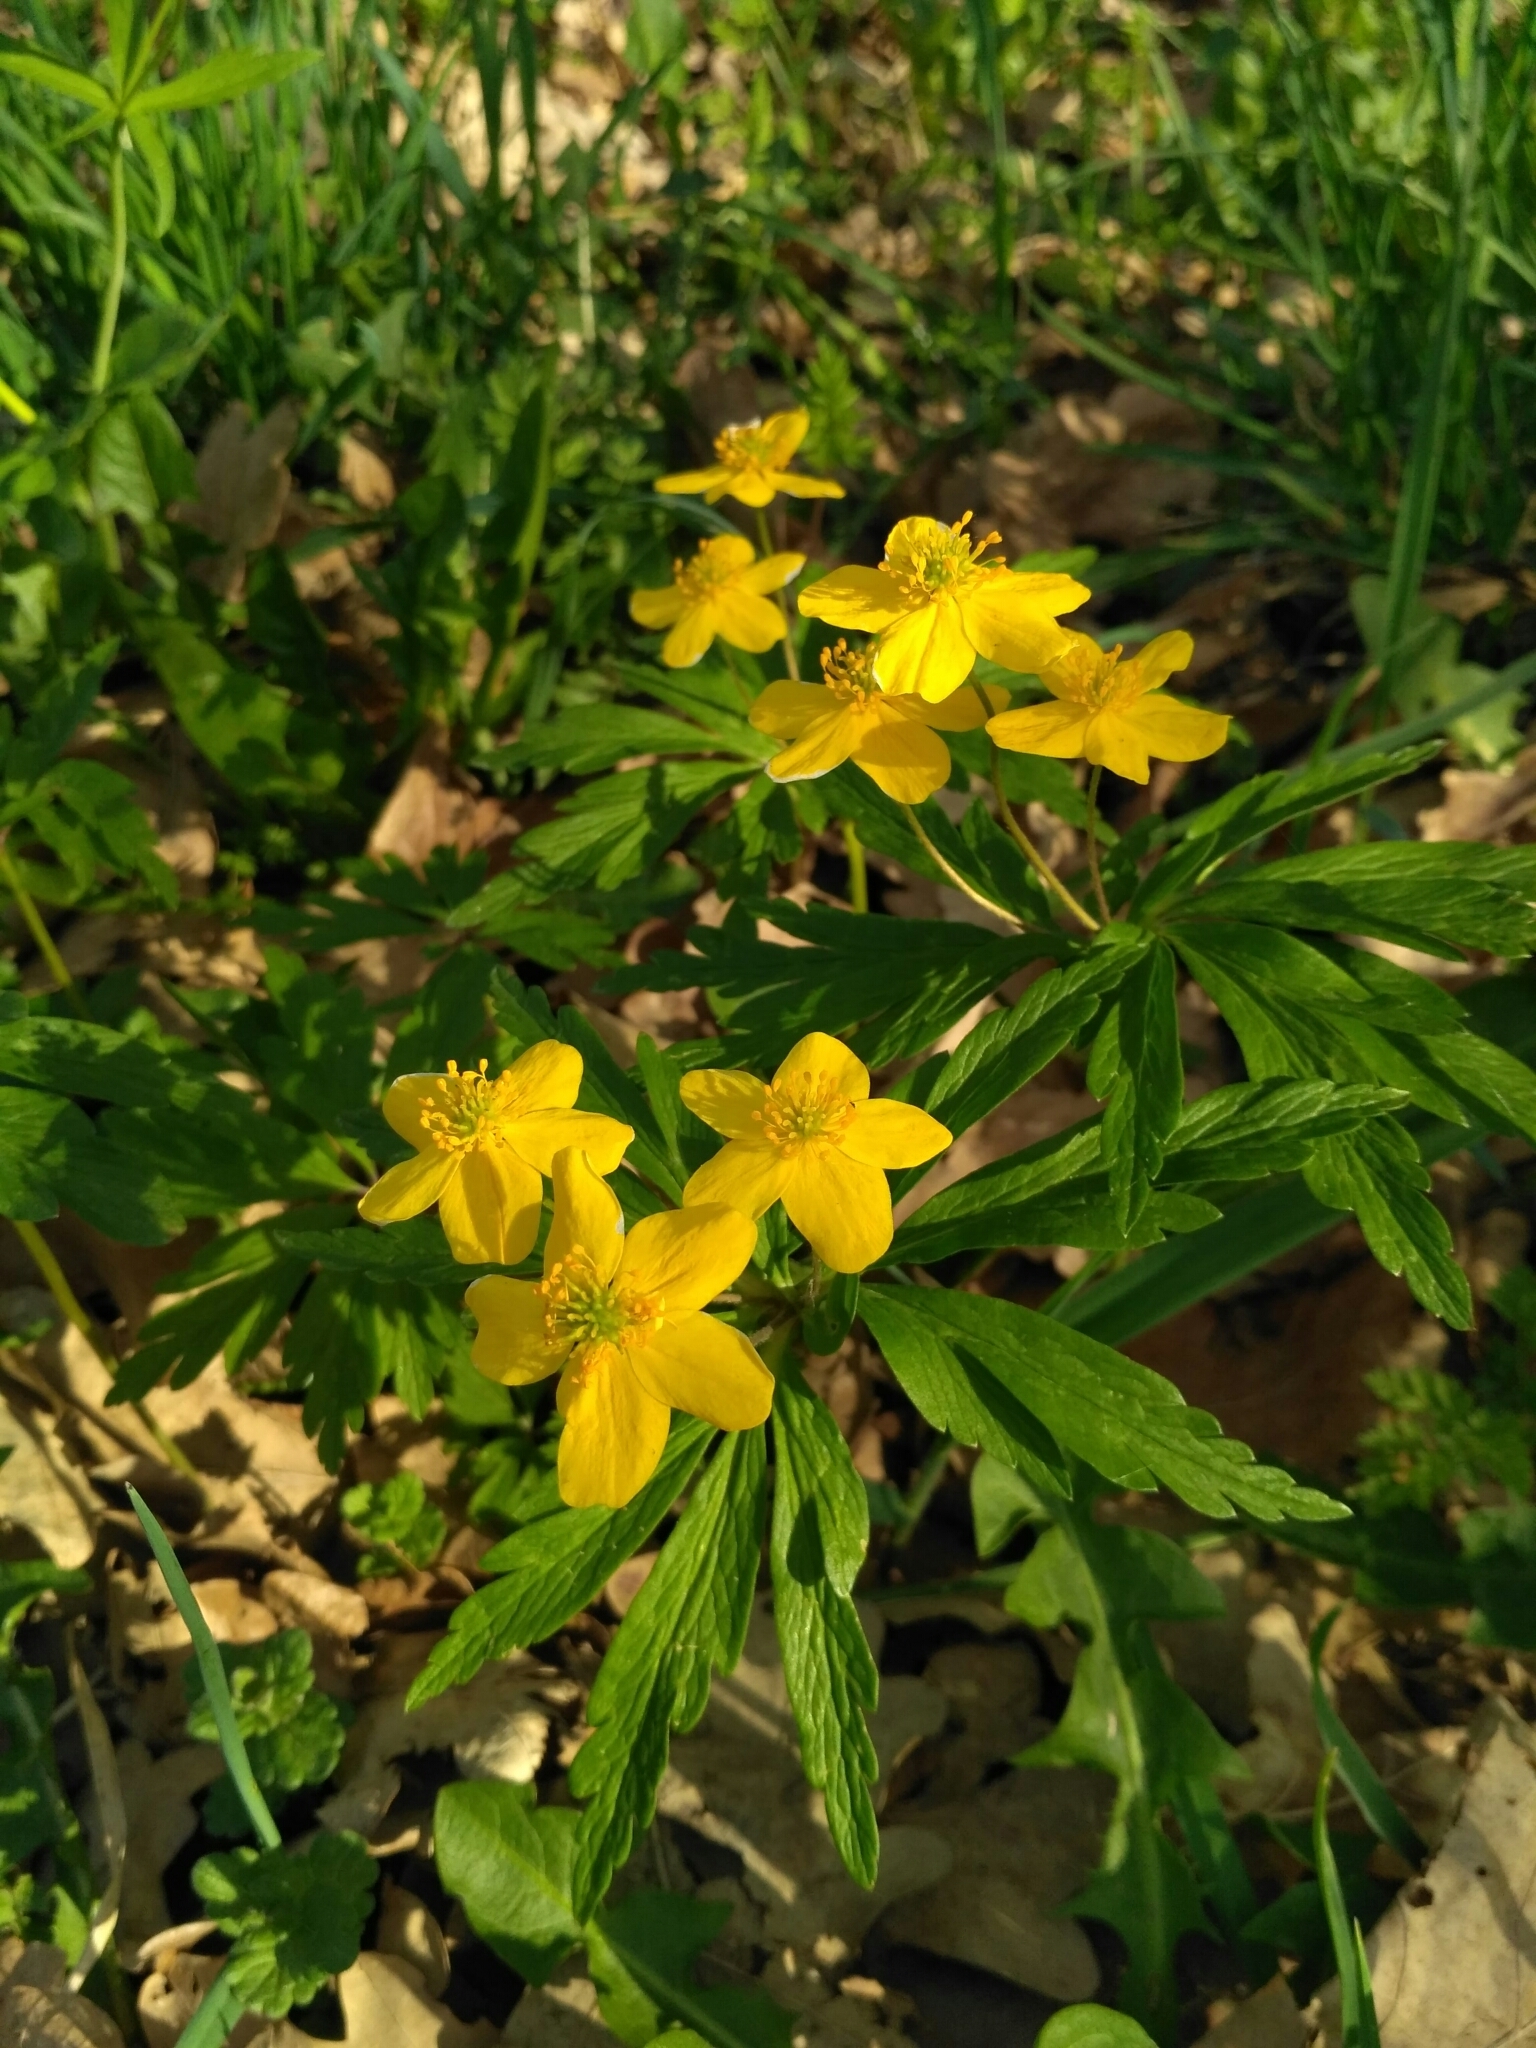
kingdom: Plantae
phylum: Tracheophyta
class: Magnoliopsida
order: Ranunculales
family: Ranunculaceae
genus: Anemone
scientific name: Anemone ranunculoides
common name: Yellow anemone
